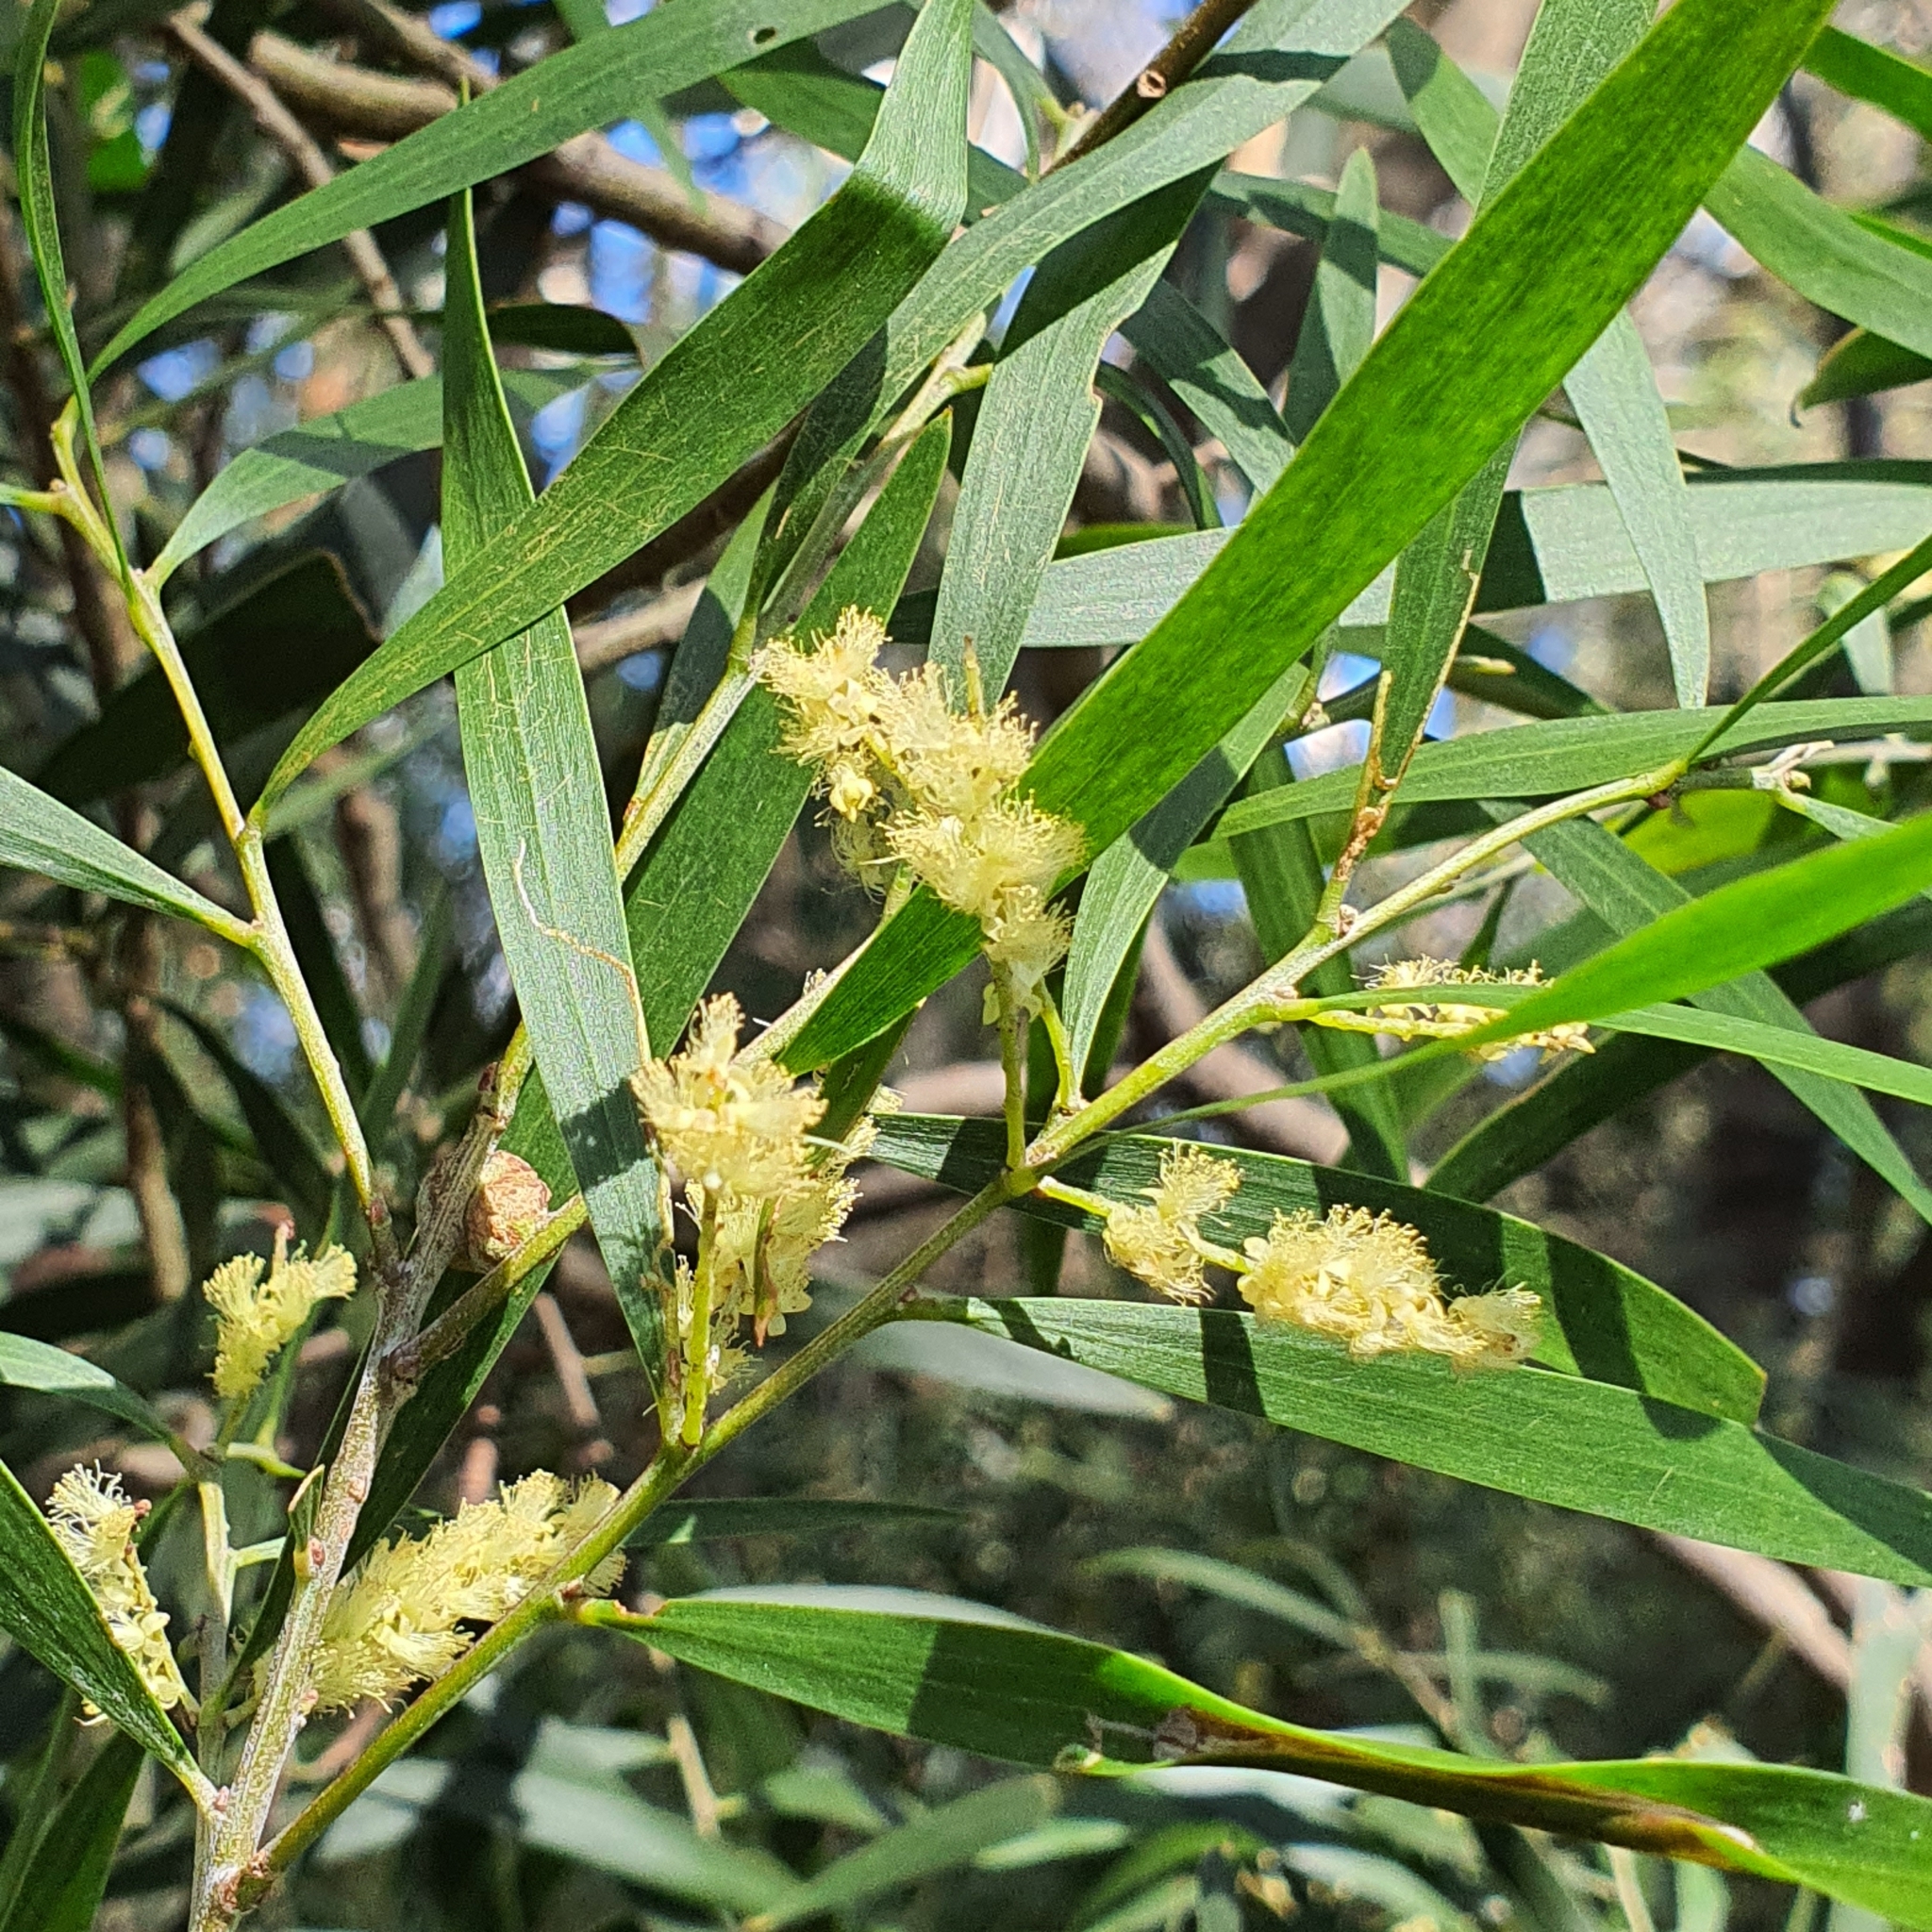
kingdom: Animalia
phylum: Arthropoda
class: Insecta
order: Hymenoptera
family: Pteromalidae
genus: Trichilogaster
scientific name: Trichilogaster acaciaelongifoliae
